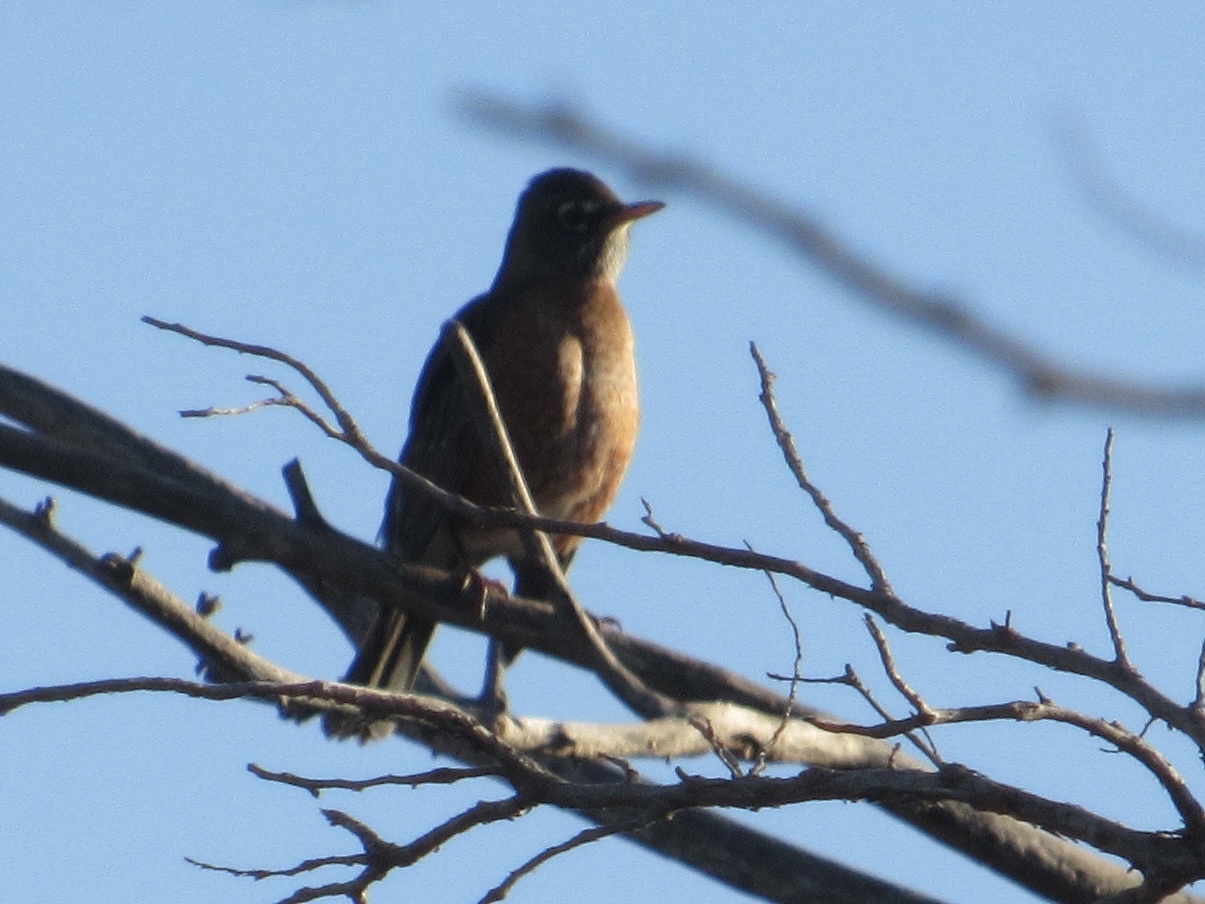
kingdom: Animalia
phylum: Chordata
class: Aves
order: Passeriformes
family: Turdidae
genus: Turdus
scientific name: Turdus migratorius
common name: American robin
